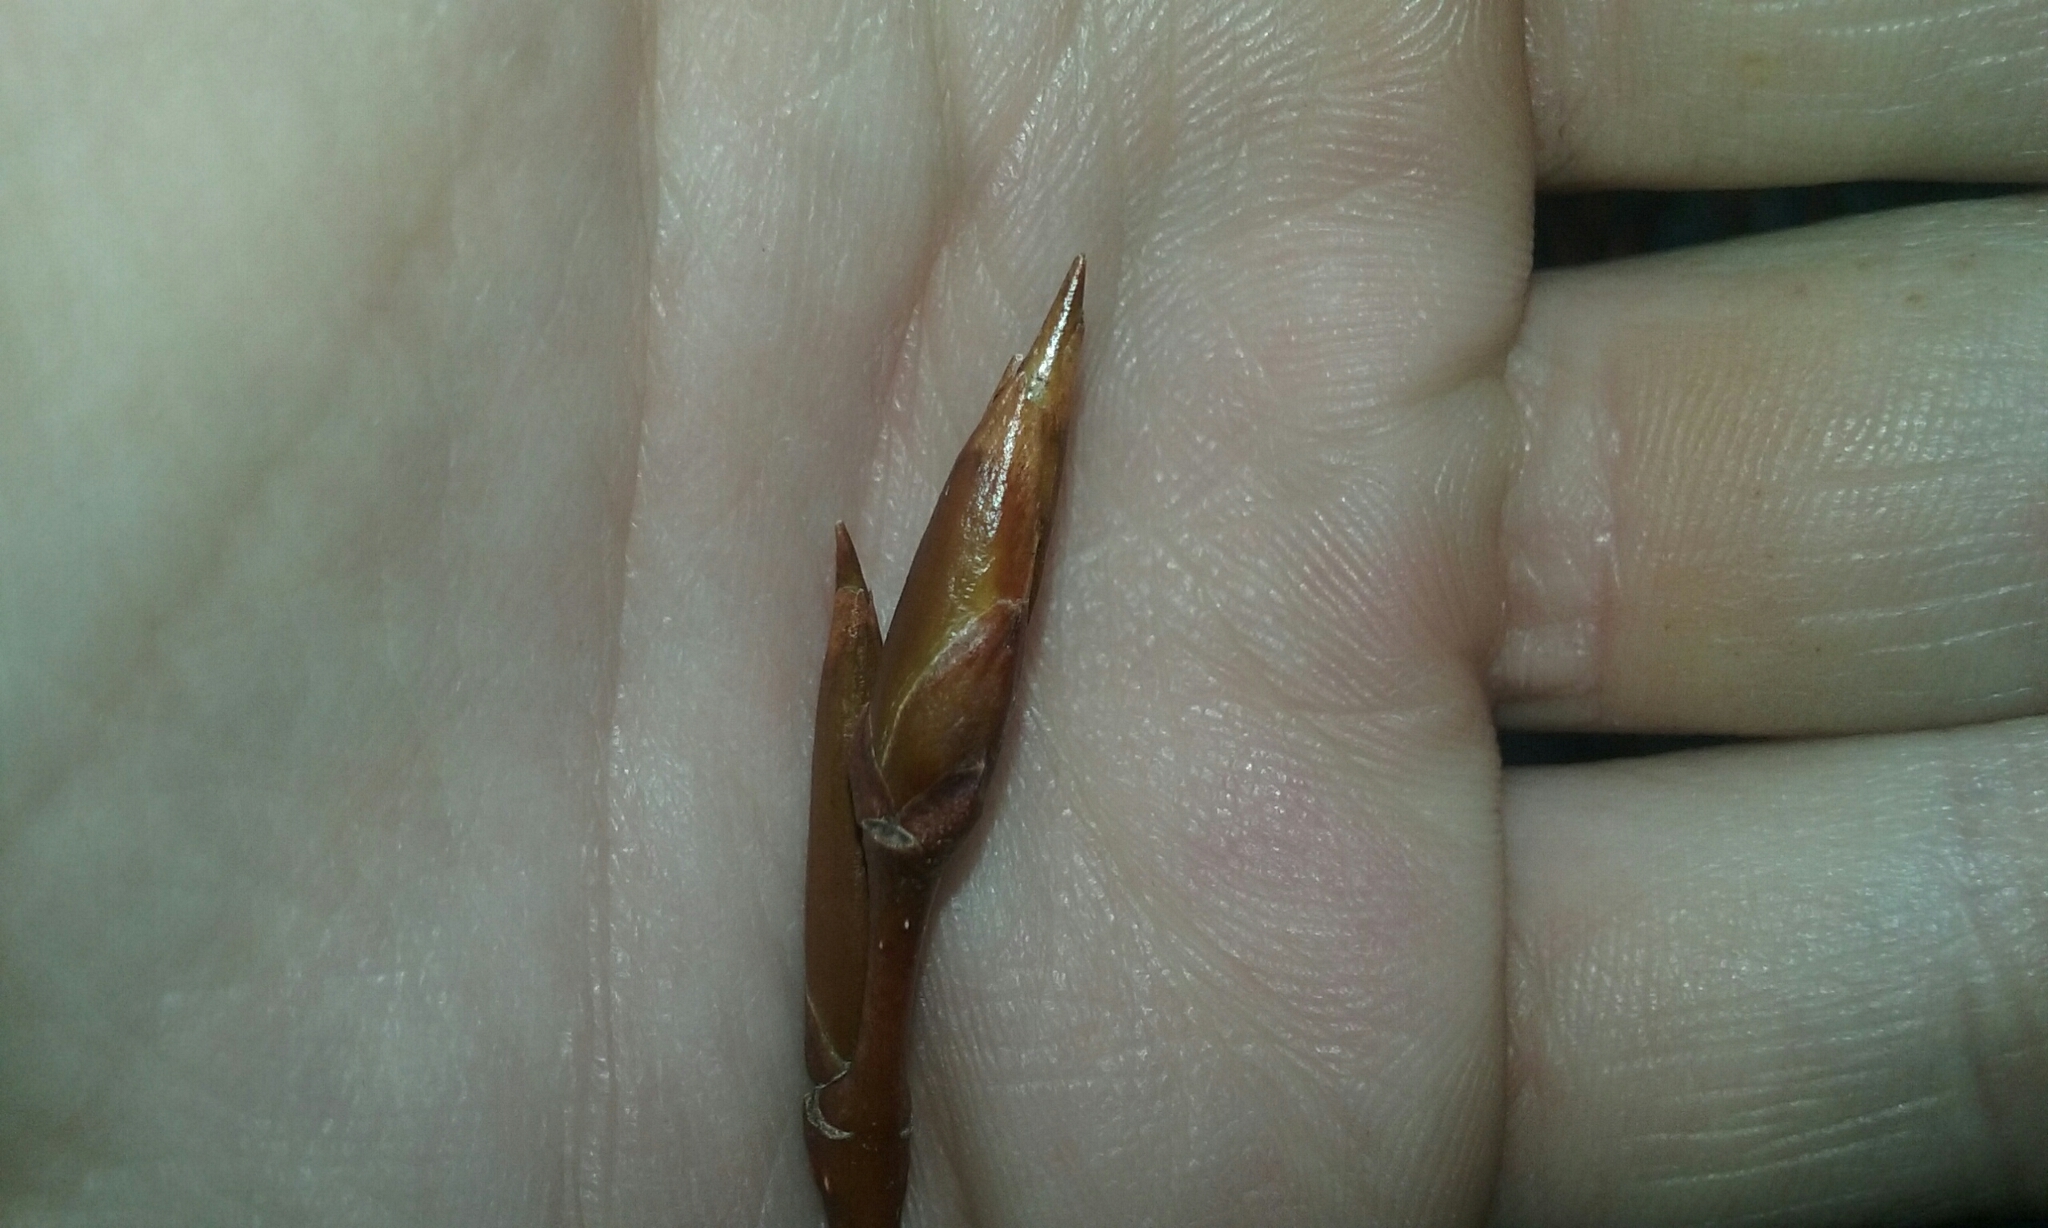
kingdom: Plantae
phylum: Tracheophyta
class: Magnoliopsida
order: Malpighiales
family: Salicaceae
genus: Populus
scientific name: Populus balsamifera
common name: Balsam poplar
